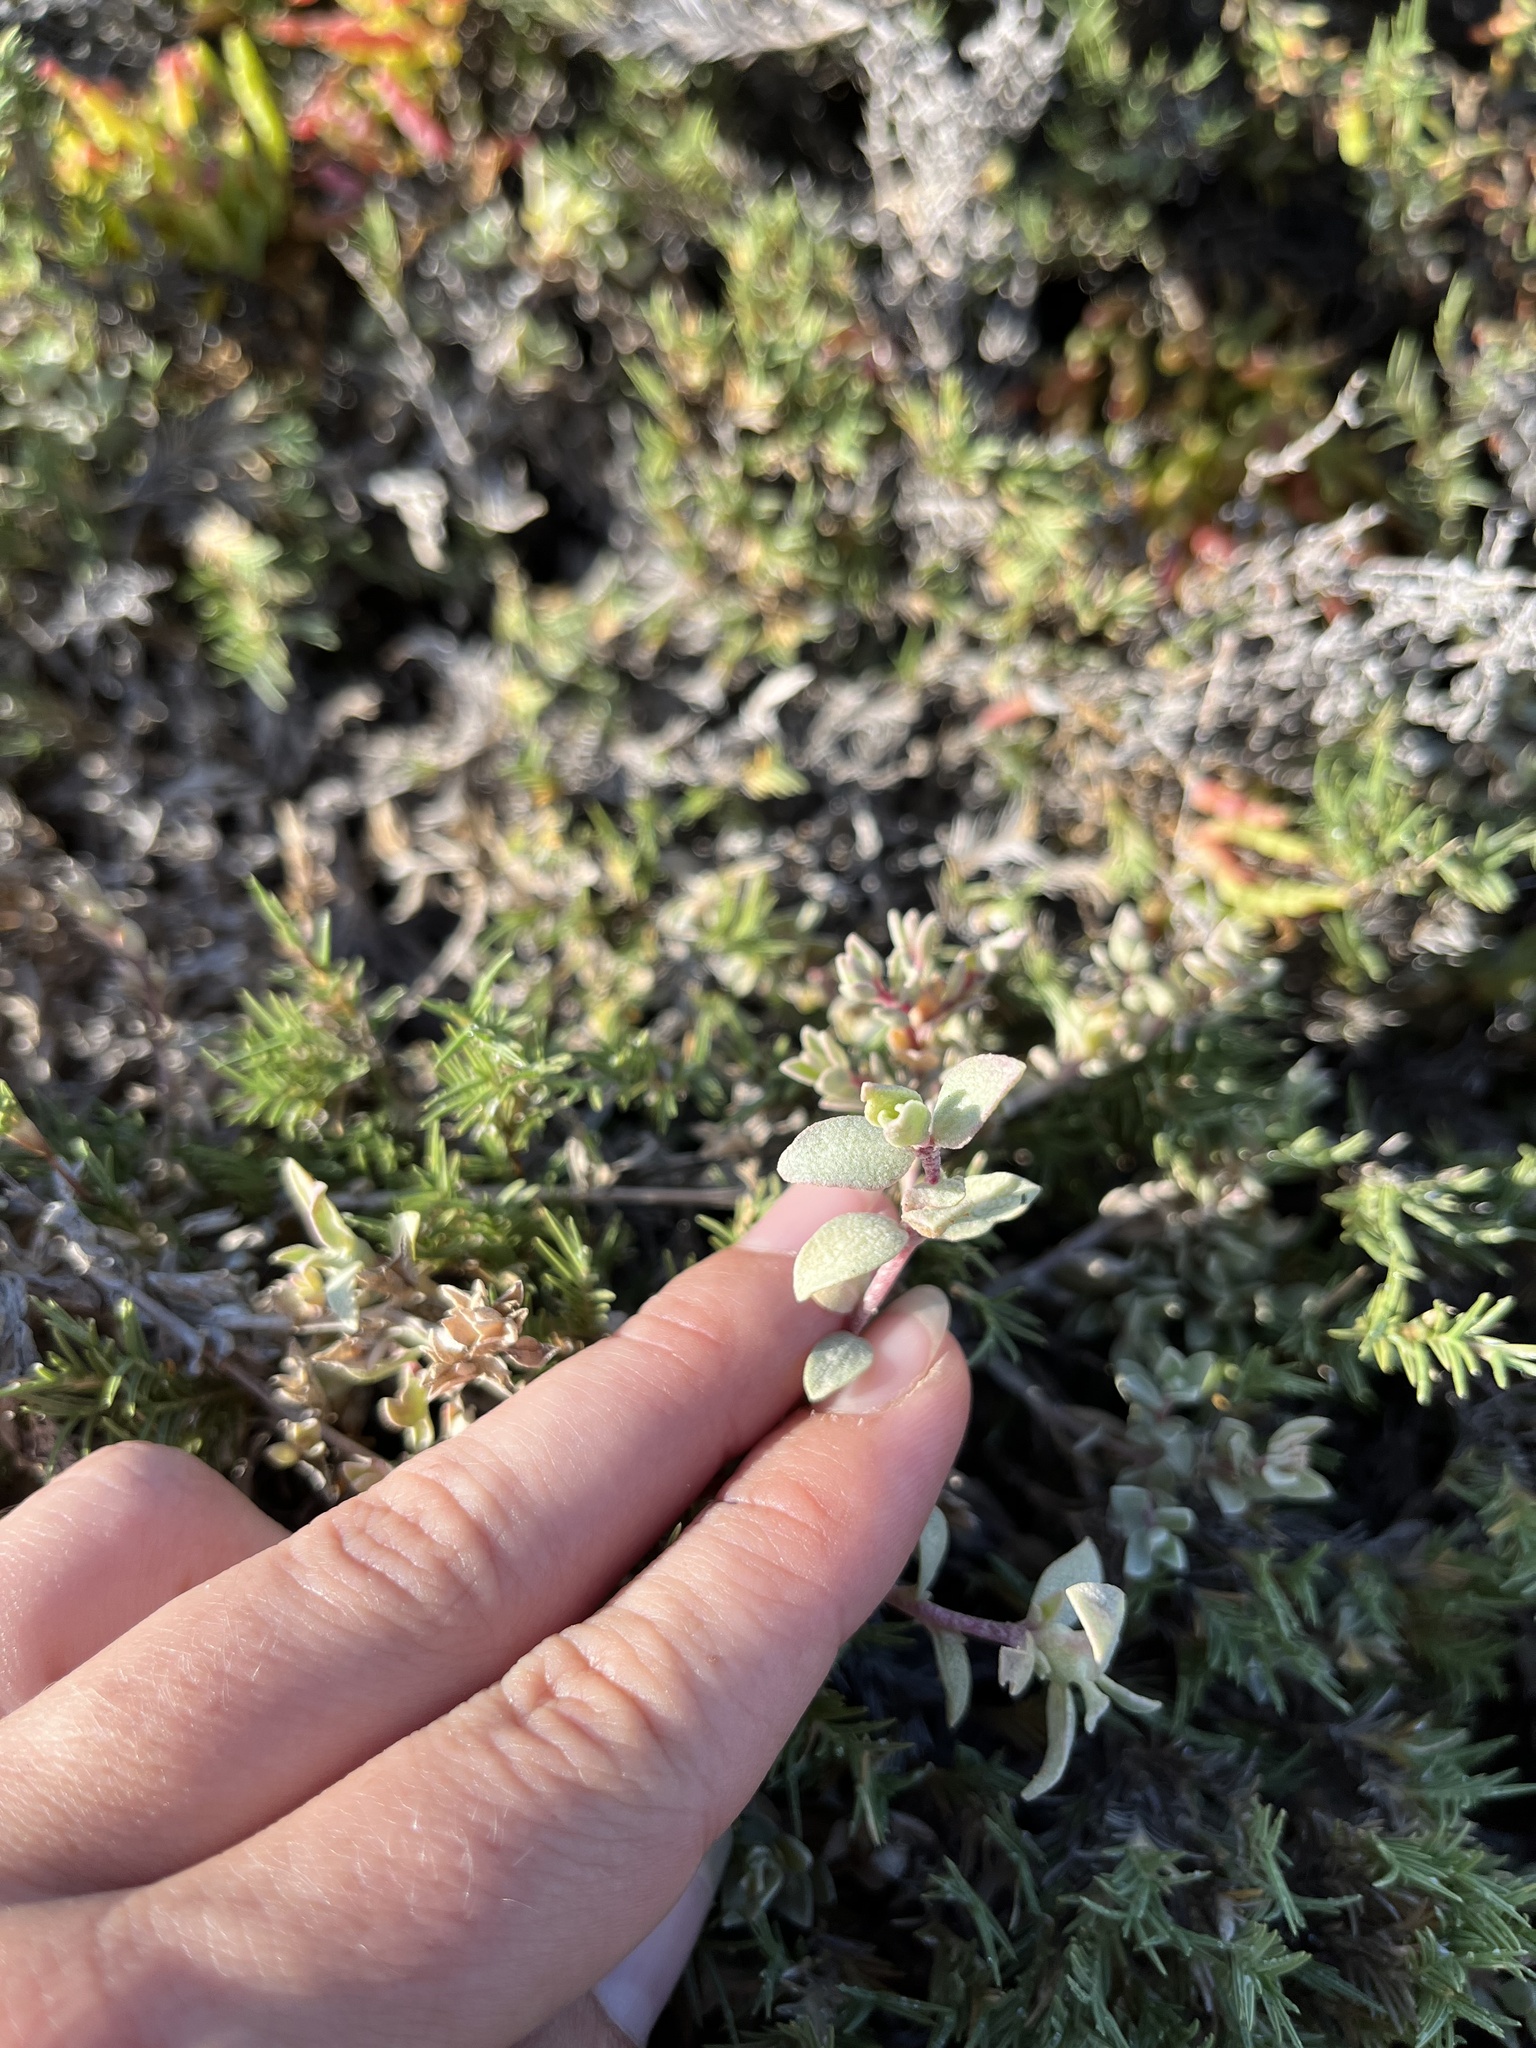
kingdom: Plantae
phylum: Tracheophyta
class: Magnoliopsida
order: Caryophyllales
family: Amaranthaceae
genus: Atriplex
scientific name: Atriplex watsonii
